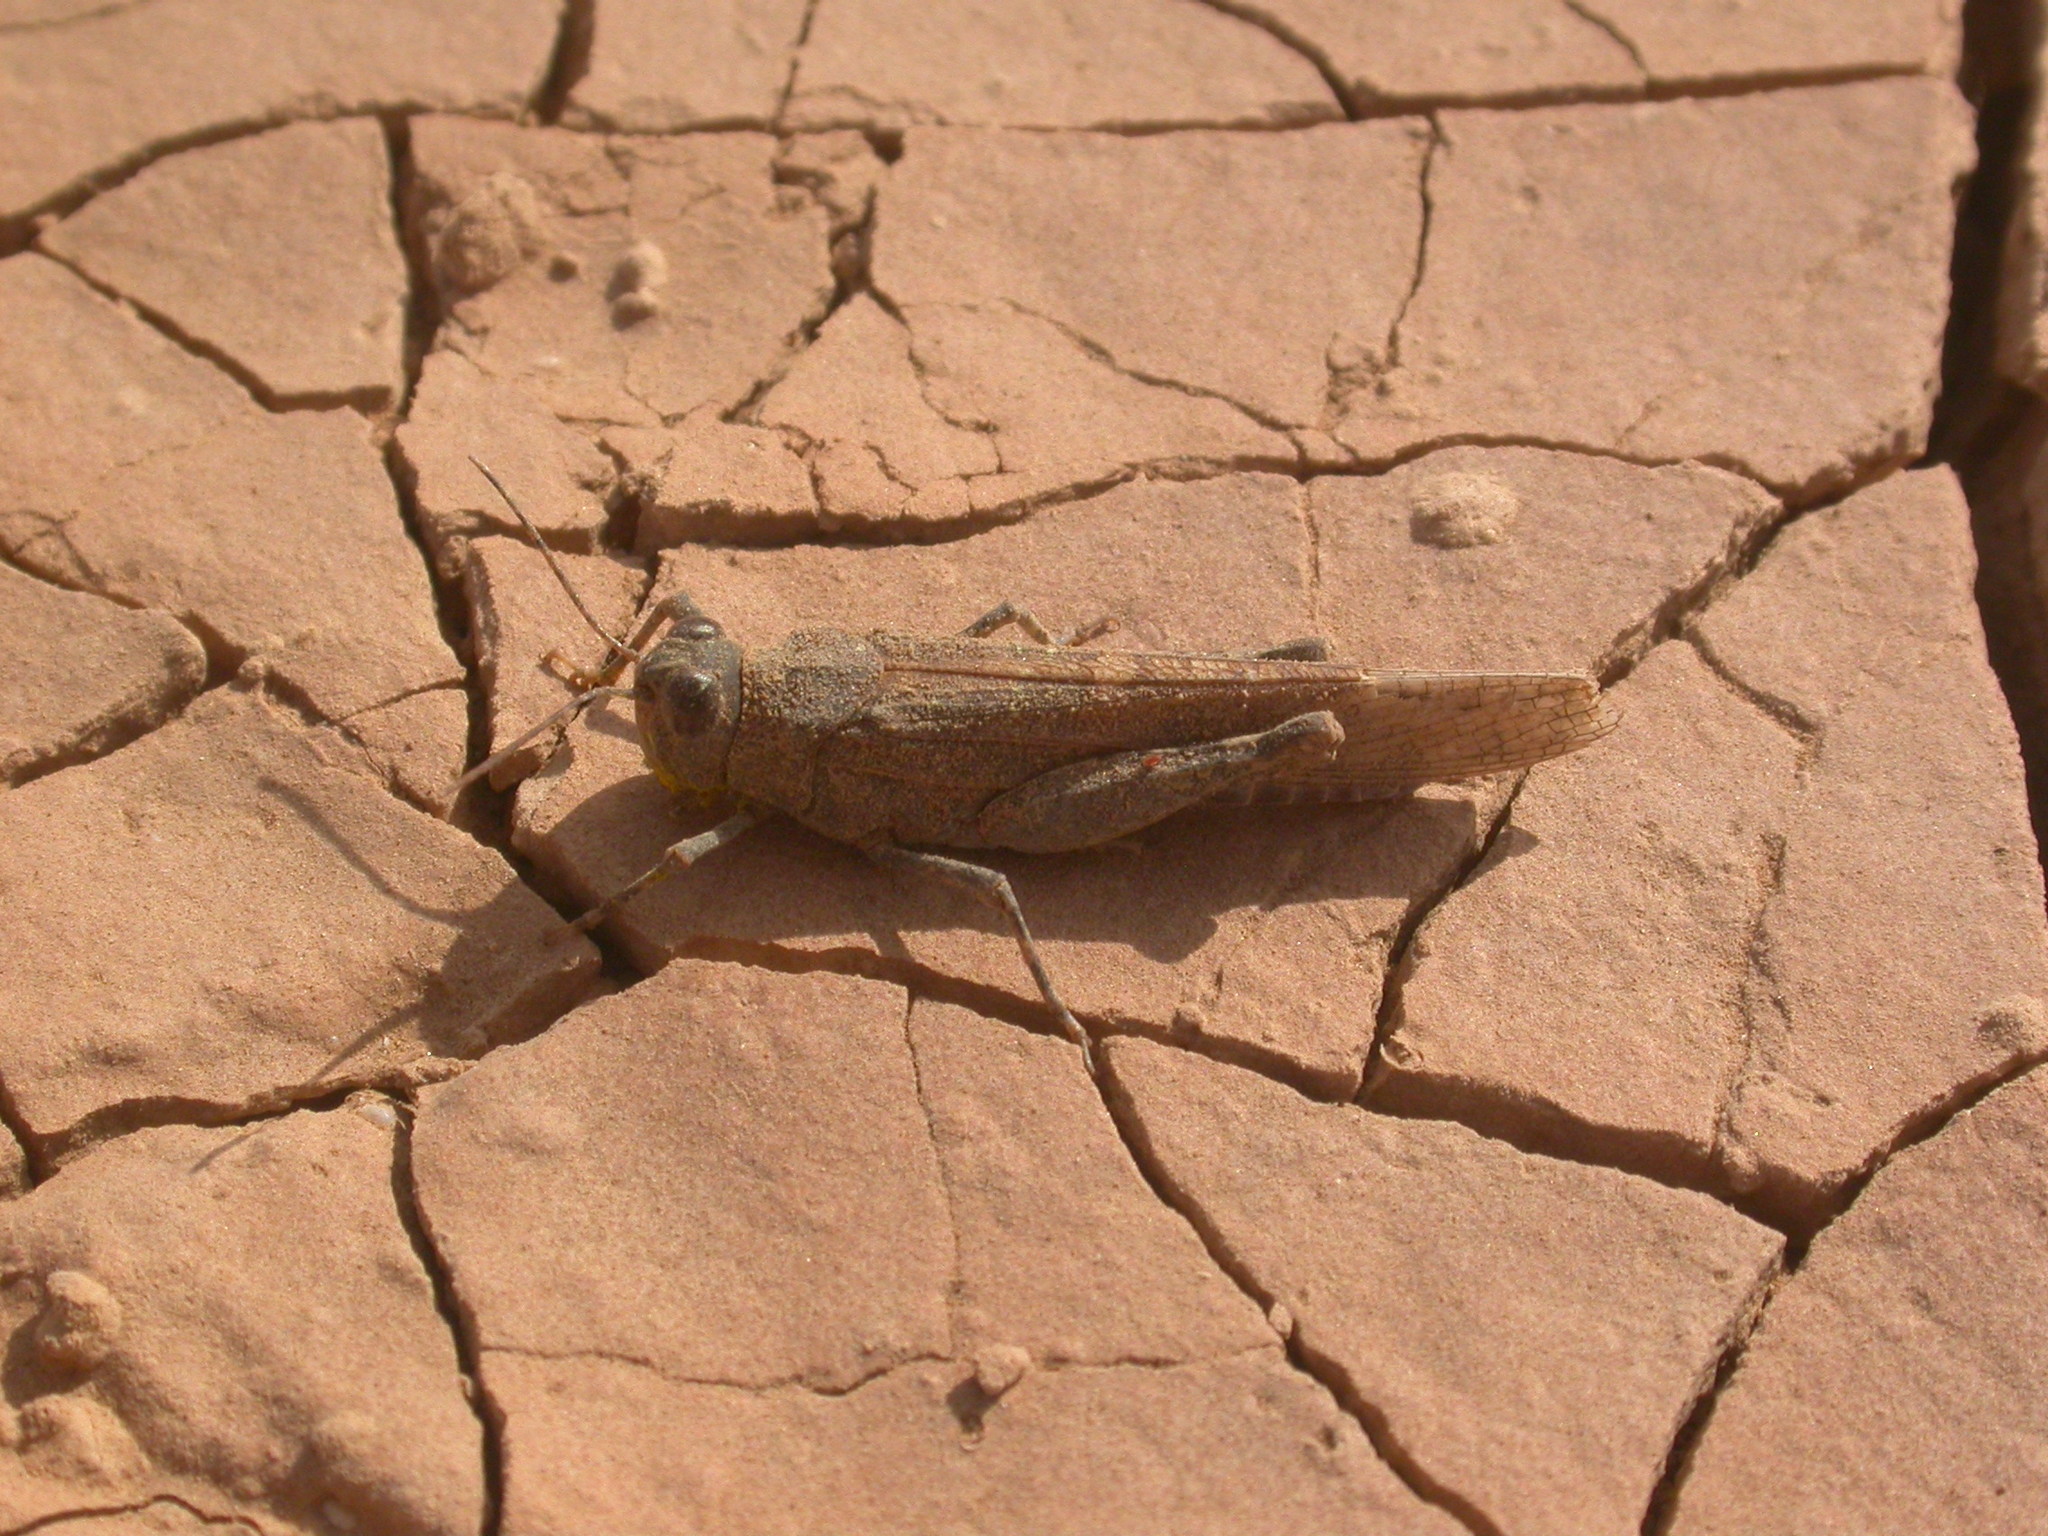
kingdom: Animalia
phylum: Arthropoda
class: Insecta
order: Orthoptera
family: Acrididae
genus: Sphingonotus
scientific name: Sphingonotus rubescens
